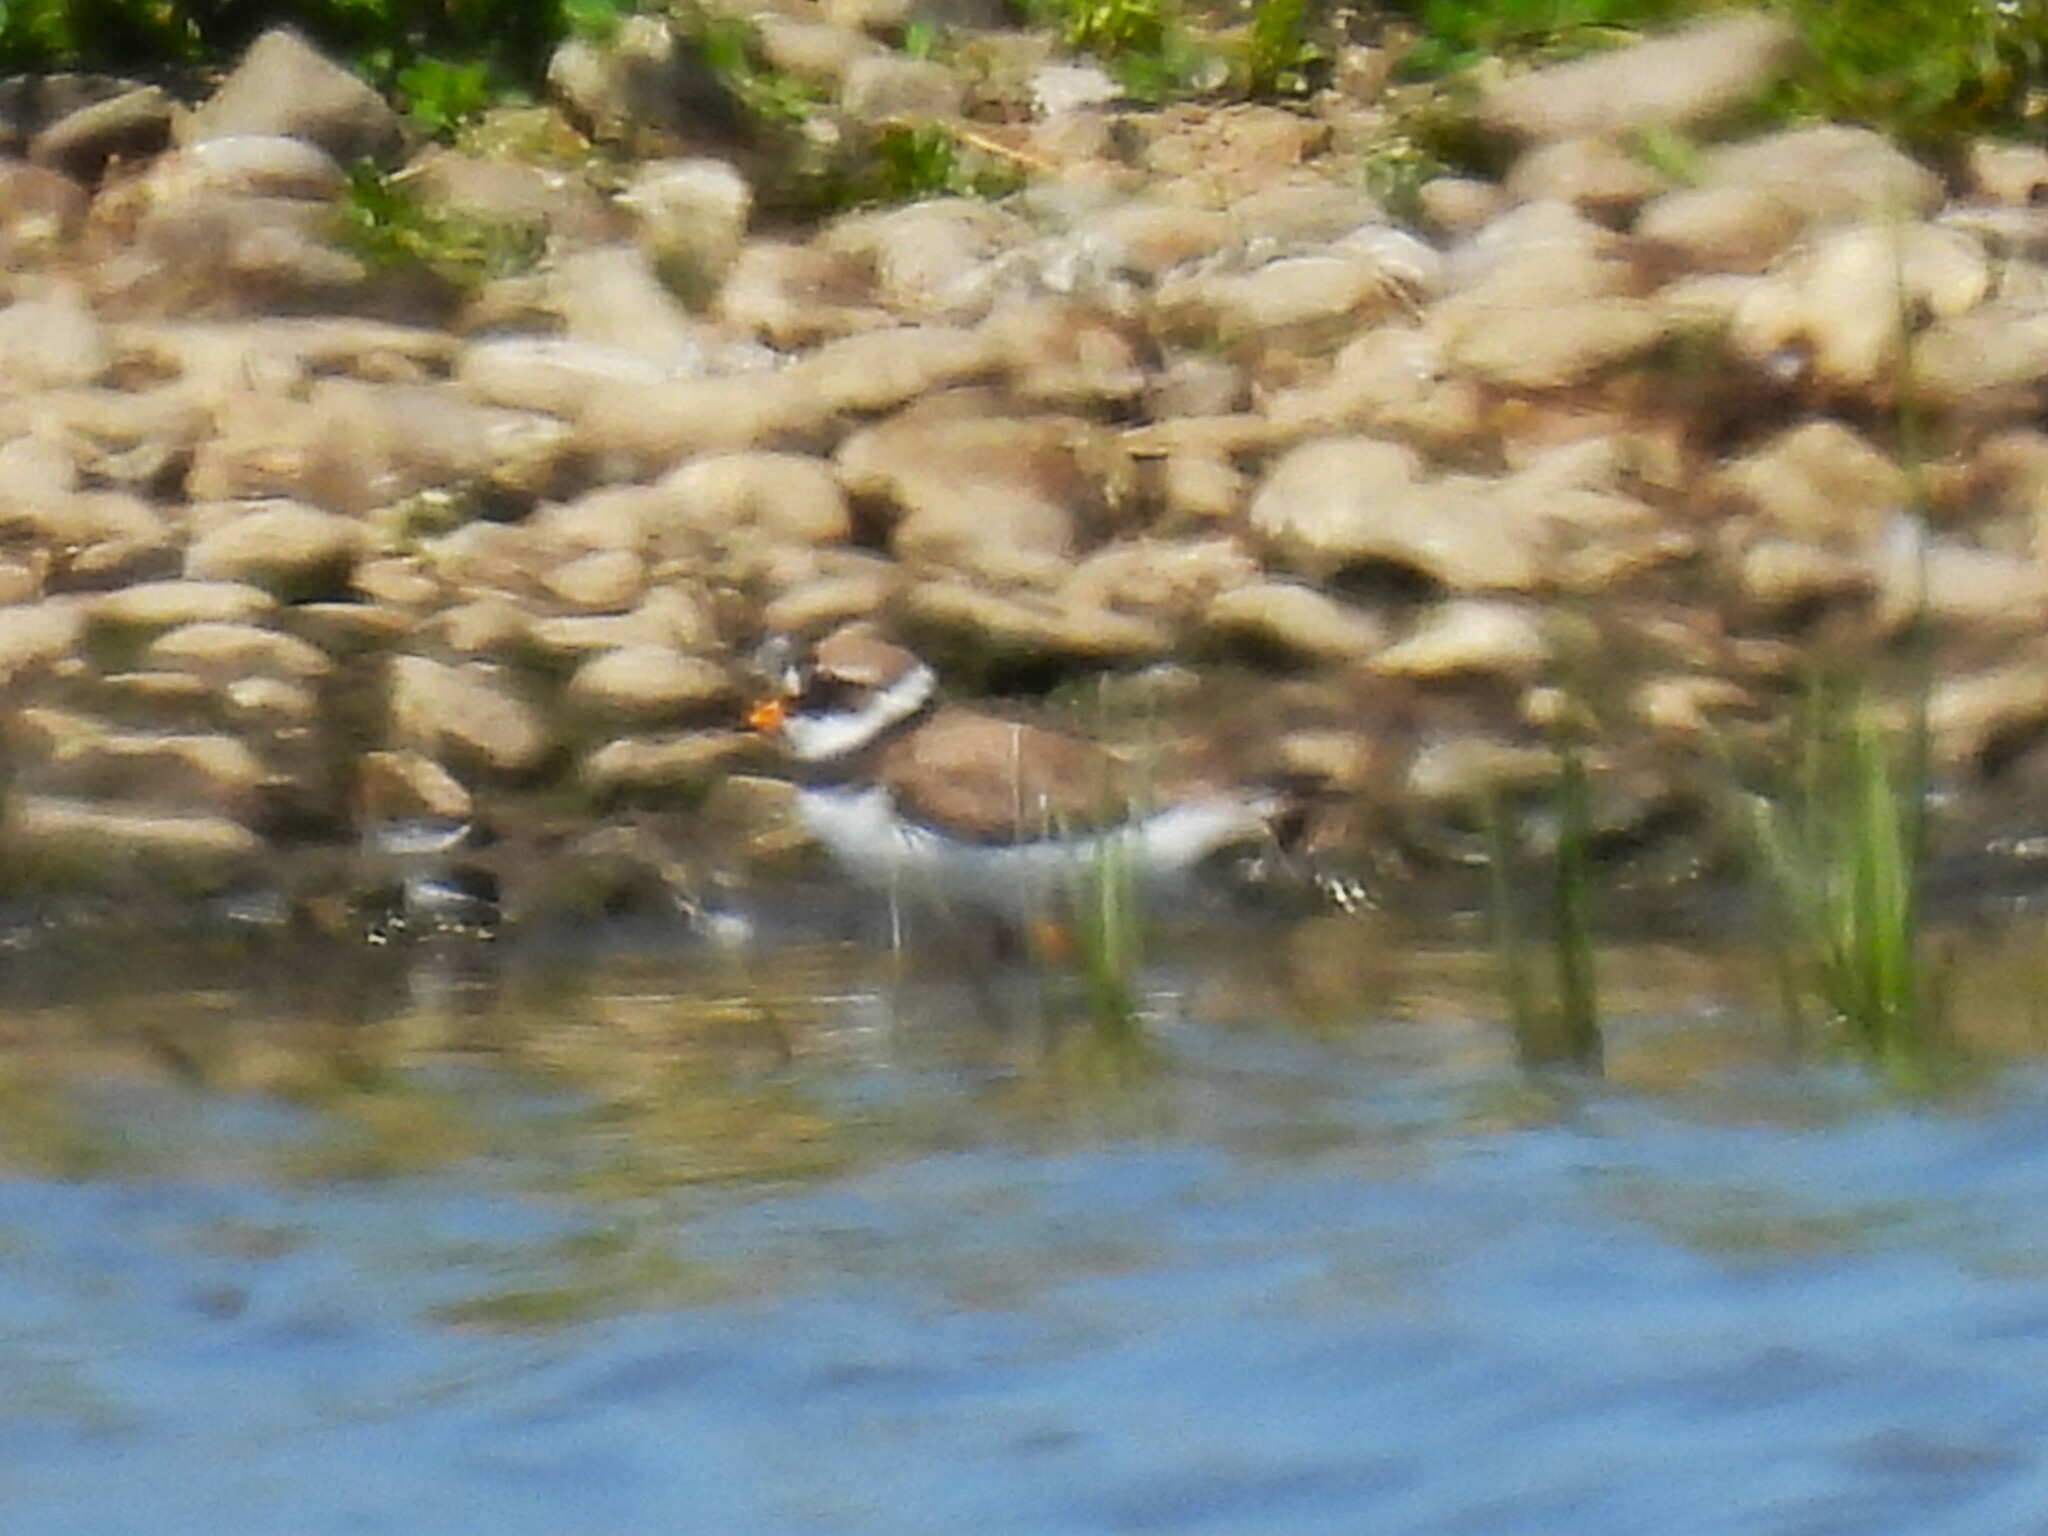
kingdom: Animalia
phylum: Chordata
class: Aves
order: Charadriiformes
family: Charadriidae
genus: Charadrius
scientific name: Charadrius hiaticula
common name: Common ringed plover
